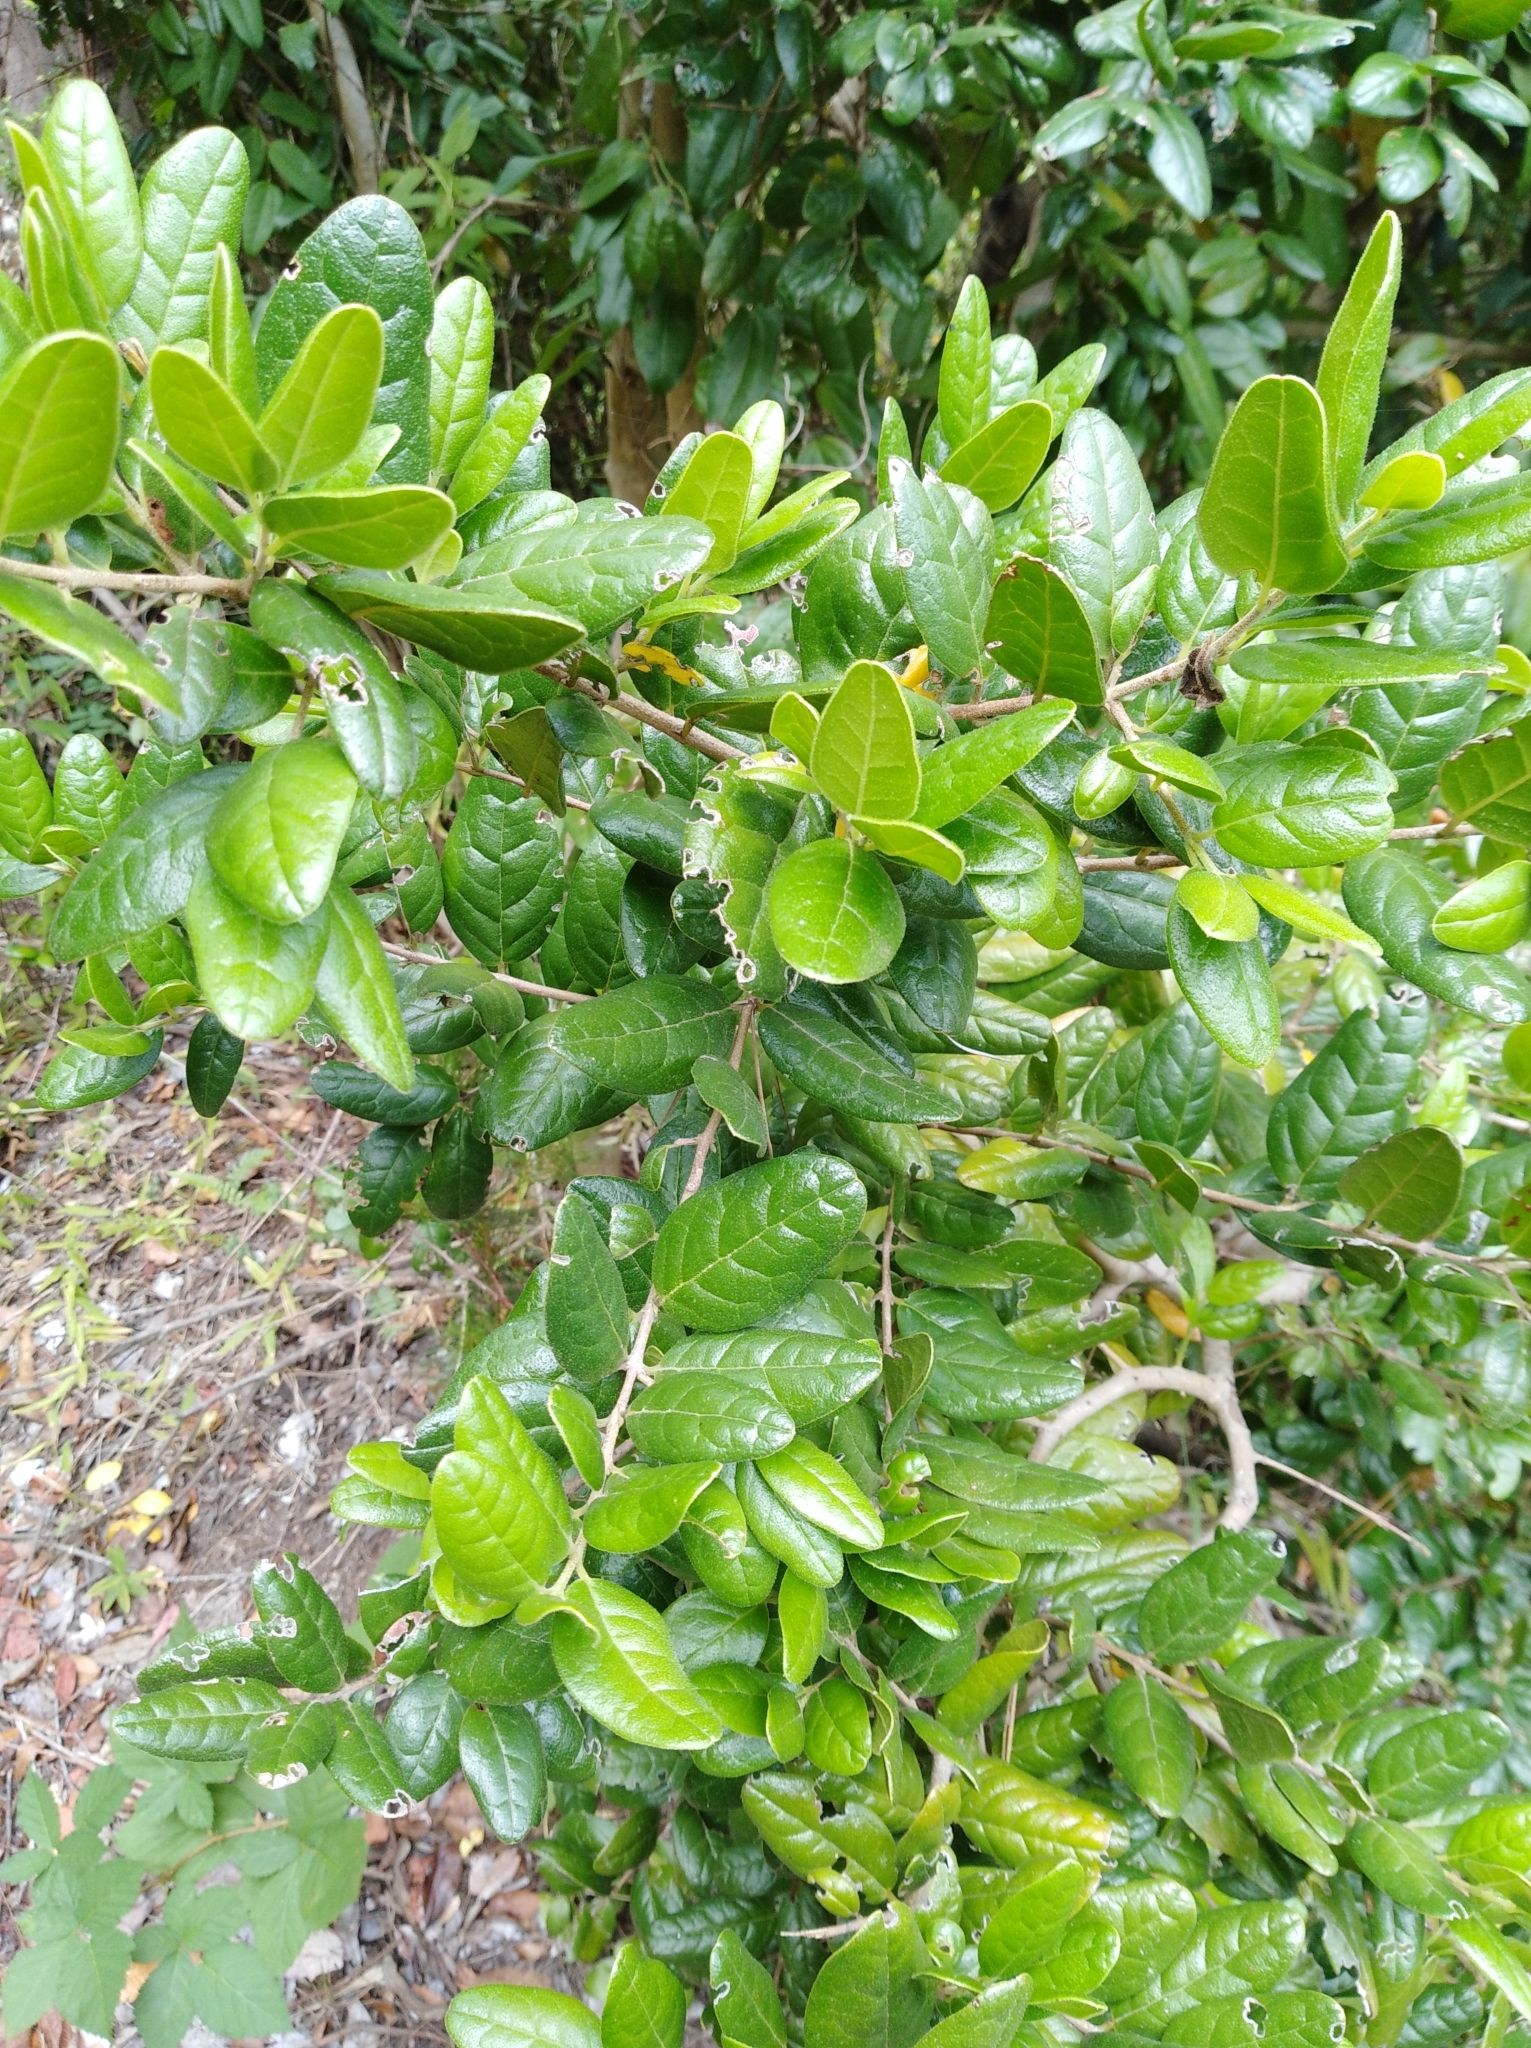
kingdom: Plantae
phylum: Tracheophyta
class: Magnoliopsida
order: Laurales
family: Monimiaceae
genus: Peumus
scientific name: Peumus boldus
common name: Boldo
